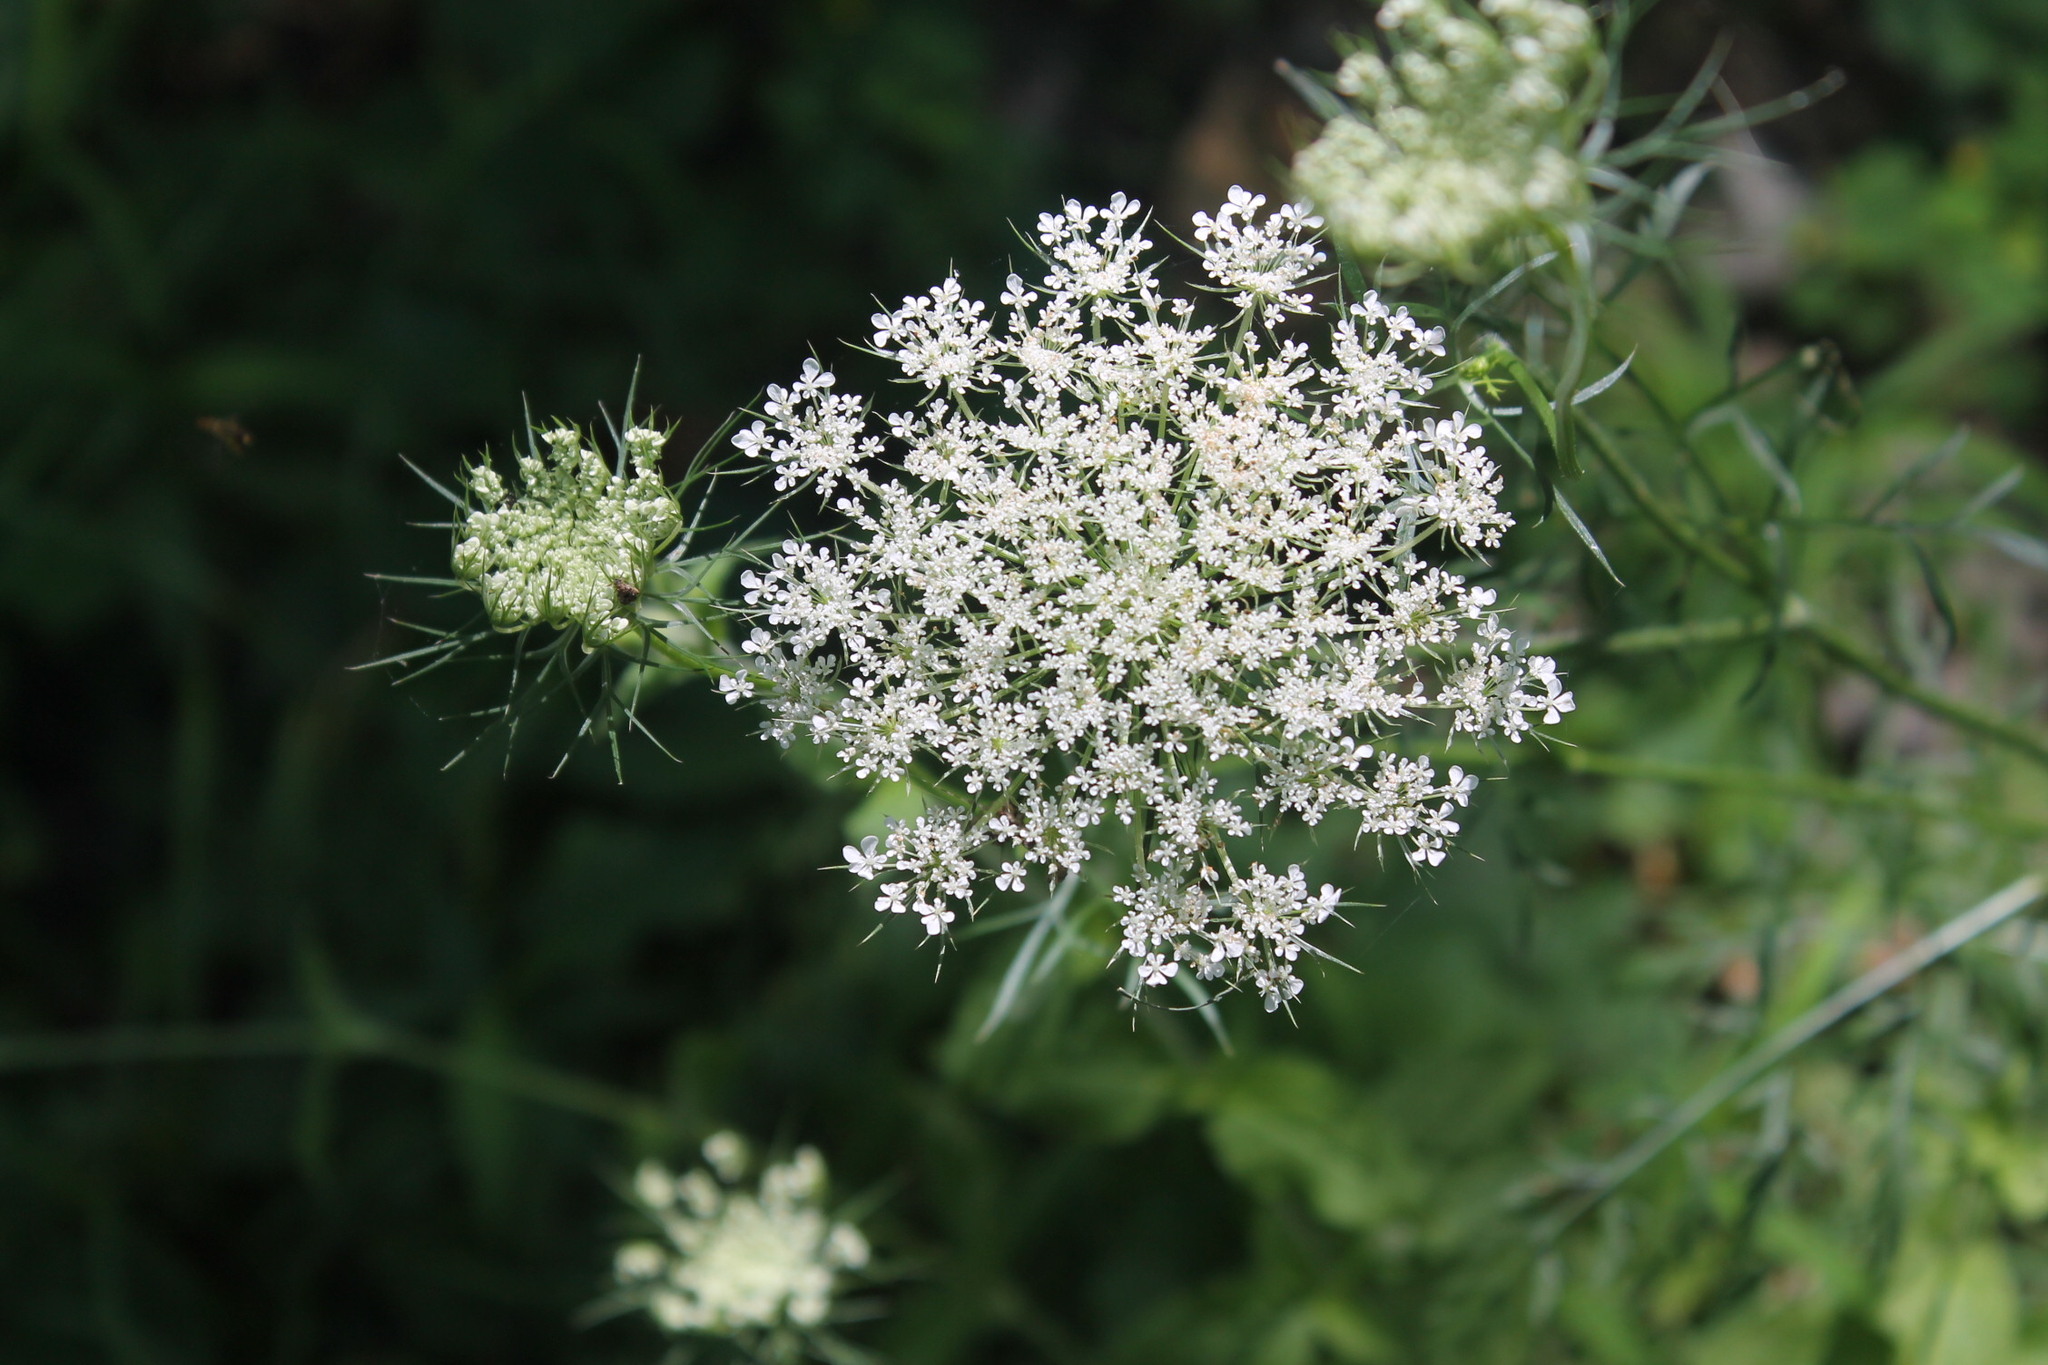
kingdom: Plantae
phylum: Tracheophyta
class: Magnoliopsida
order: Apiales
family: Apiaceae
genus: Daucus
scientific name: Daucus carota
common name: Wild carrot
